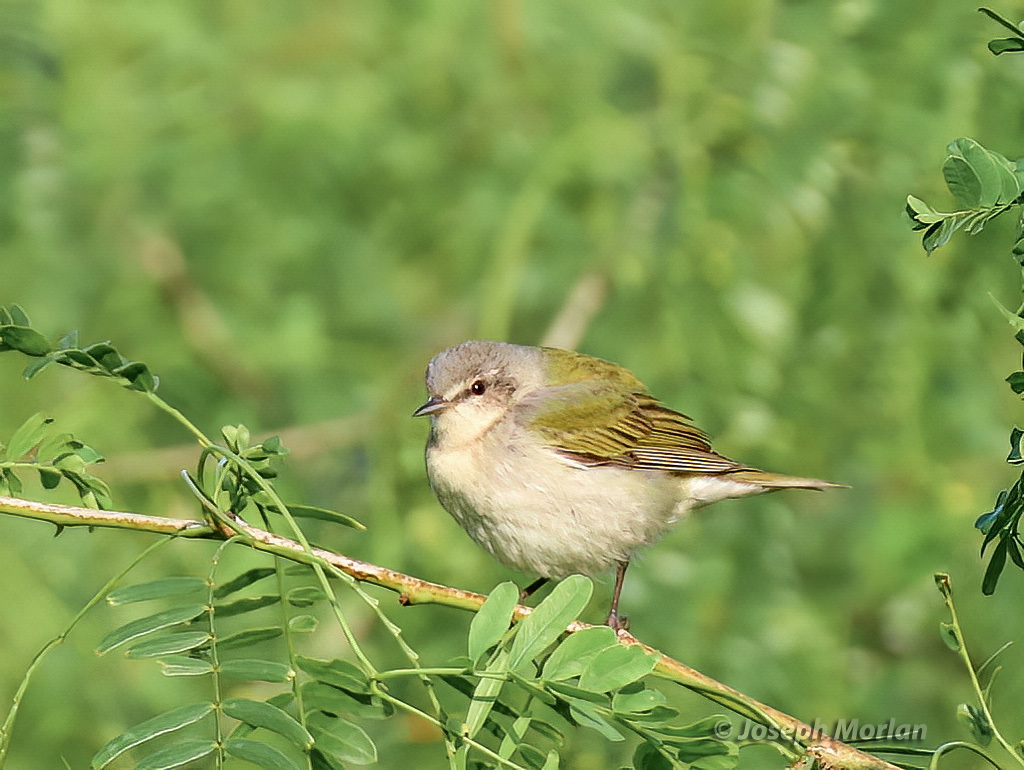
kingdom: Animalia
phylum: Chordata
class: Aves
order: Passeriformes
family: Parulidae
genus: Leiothlypis
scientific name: Leiothlypis peregrina
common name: Tennessee warbler
